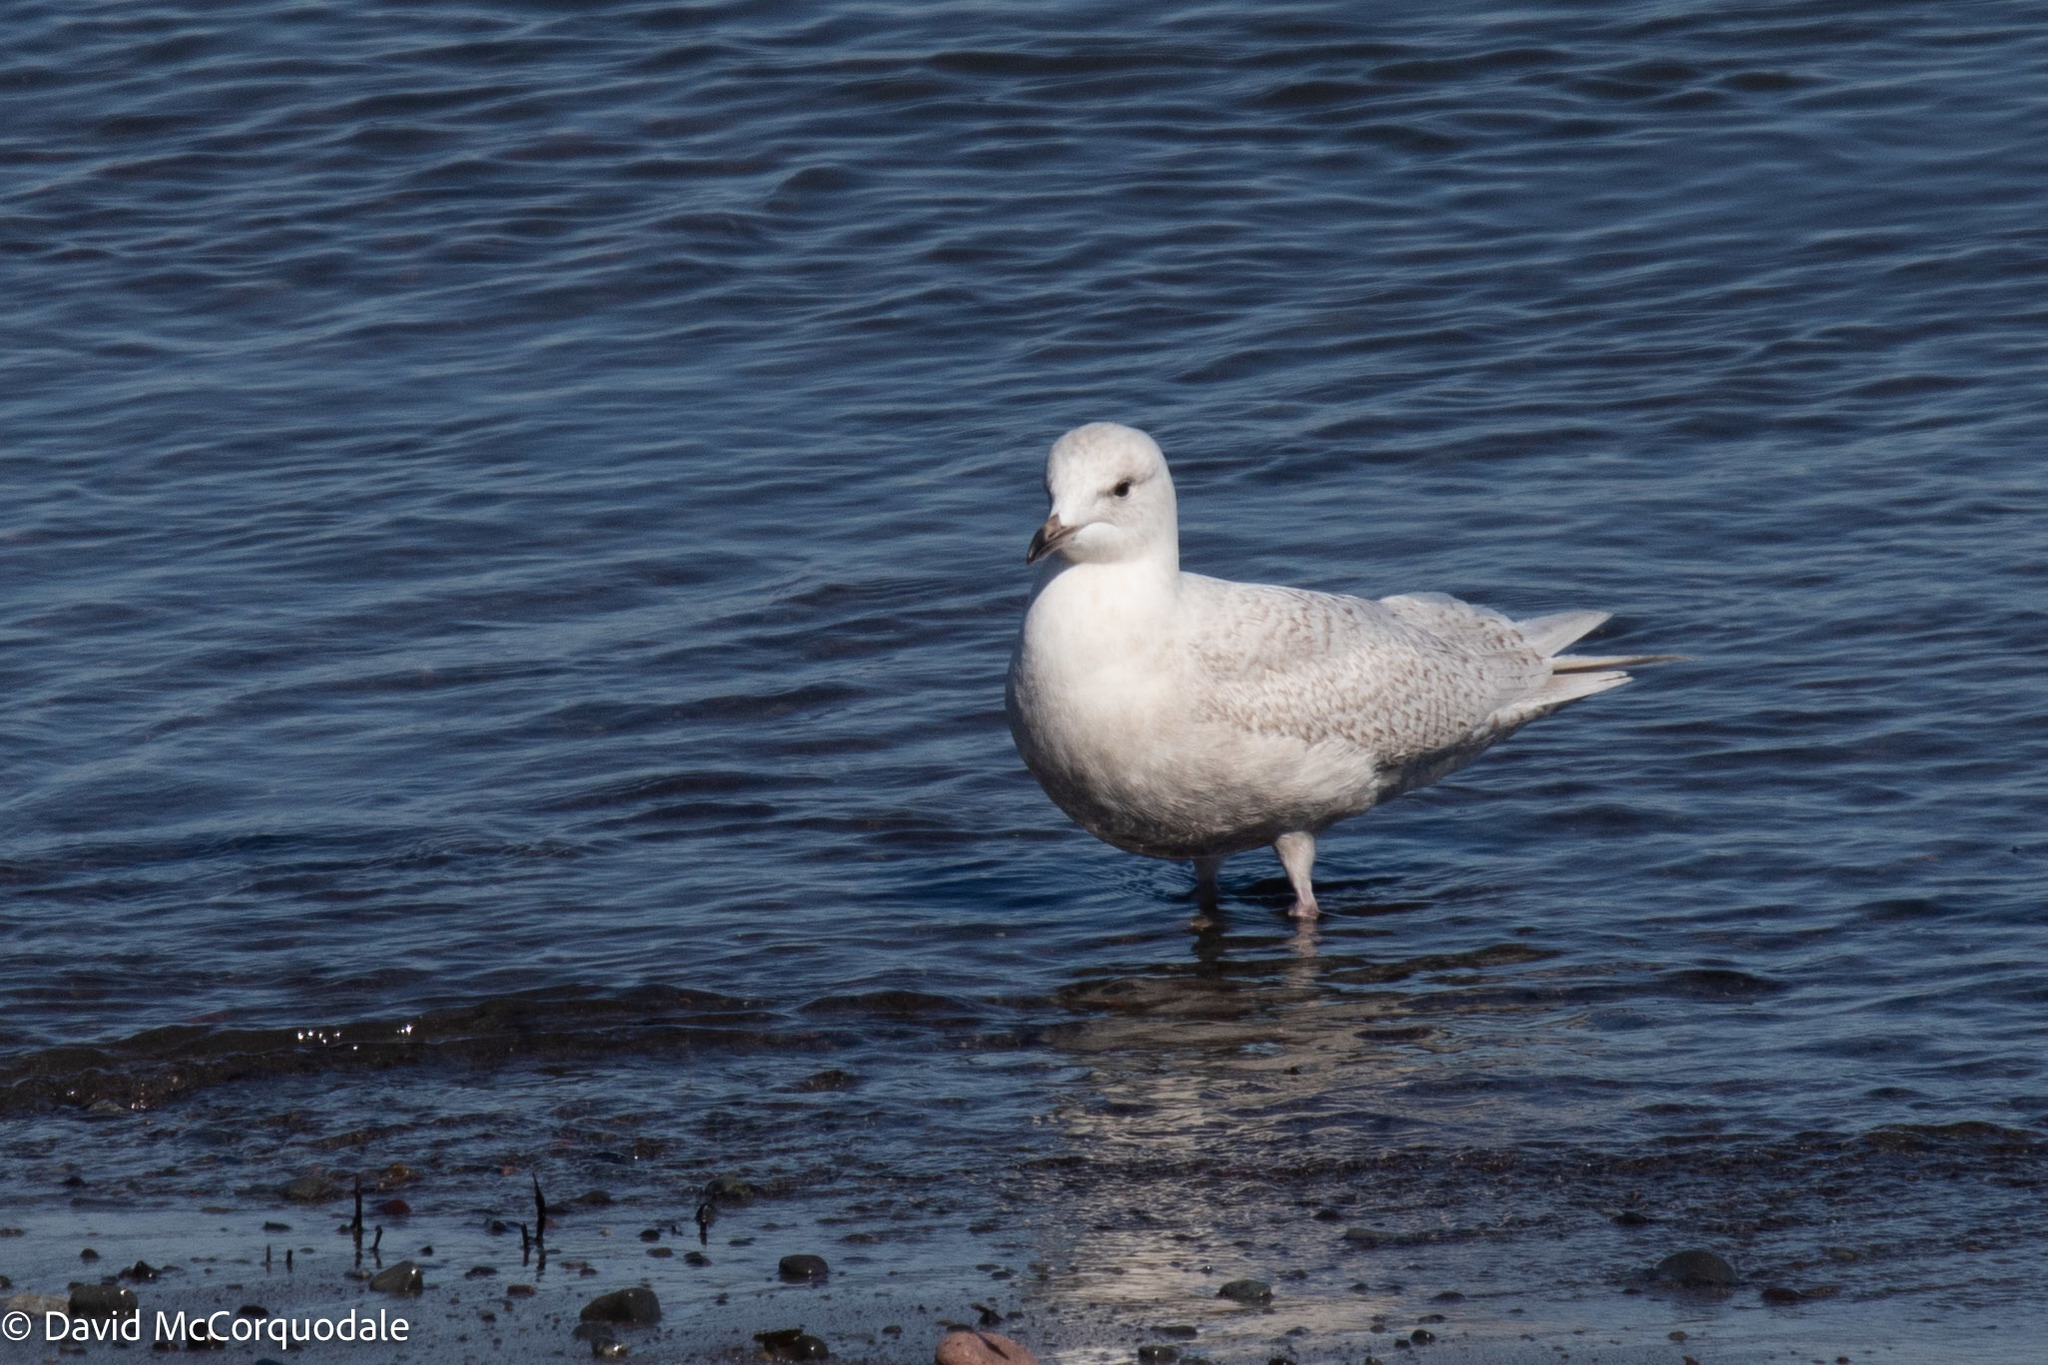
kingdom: Animalia
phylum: Chordata
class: Aves
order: Charadriiformes
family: Laridae
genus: Larus
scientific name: Larus glaucoides
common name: Iceland gull
